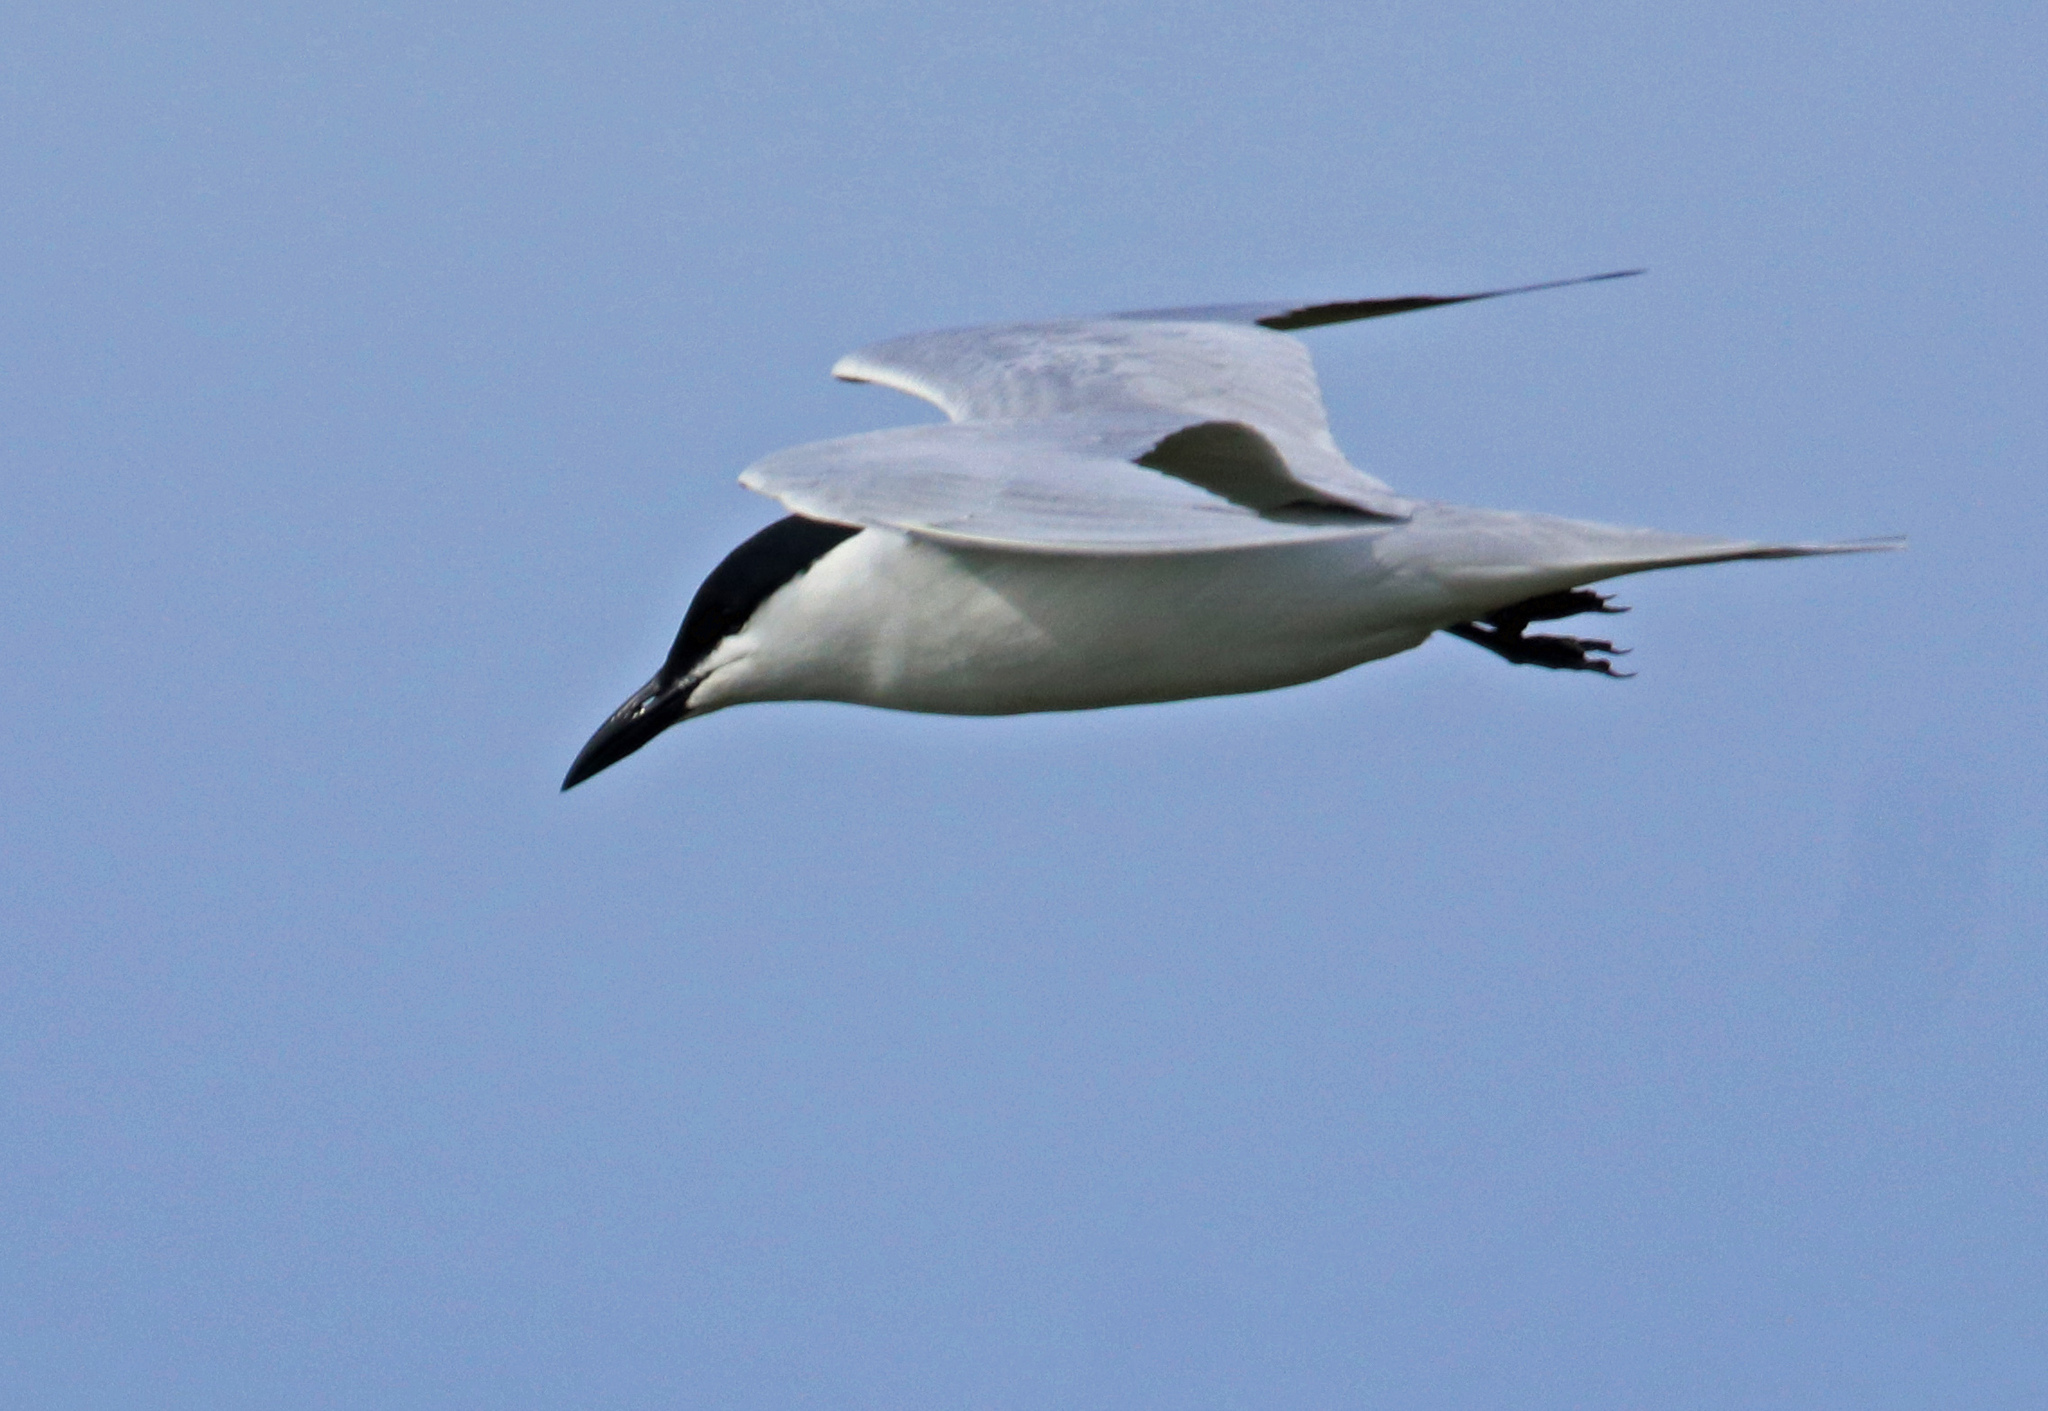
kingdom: Animalia
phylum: Chordata
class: Aves
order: Charadriiformes
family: Laridae
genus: Gelochelidon
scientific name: Gelochelidon nilotica
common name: Gull-billed tern
